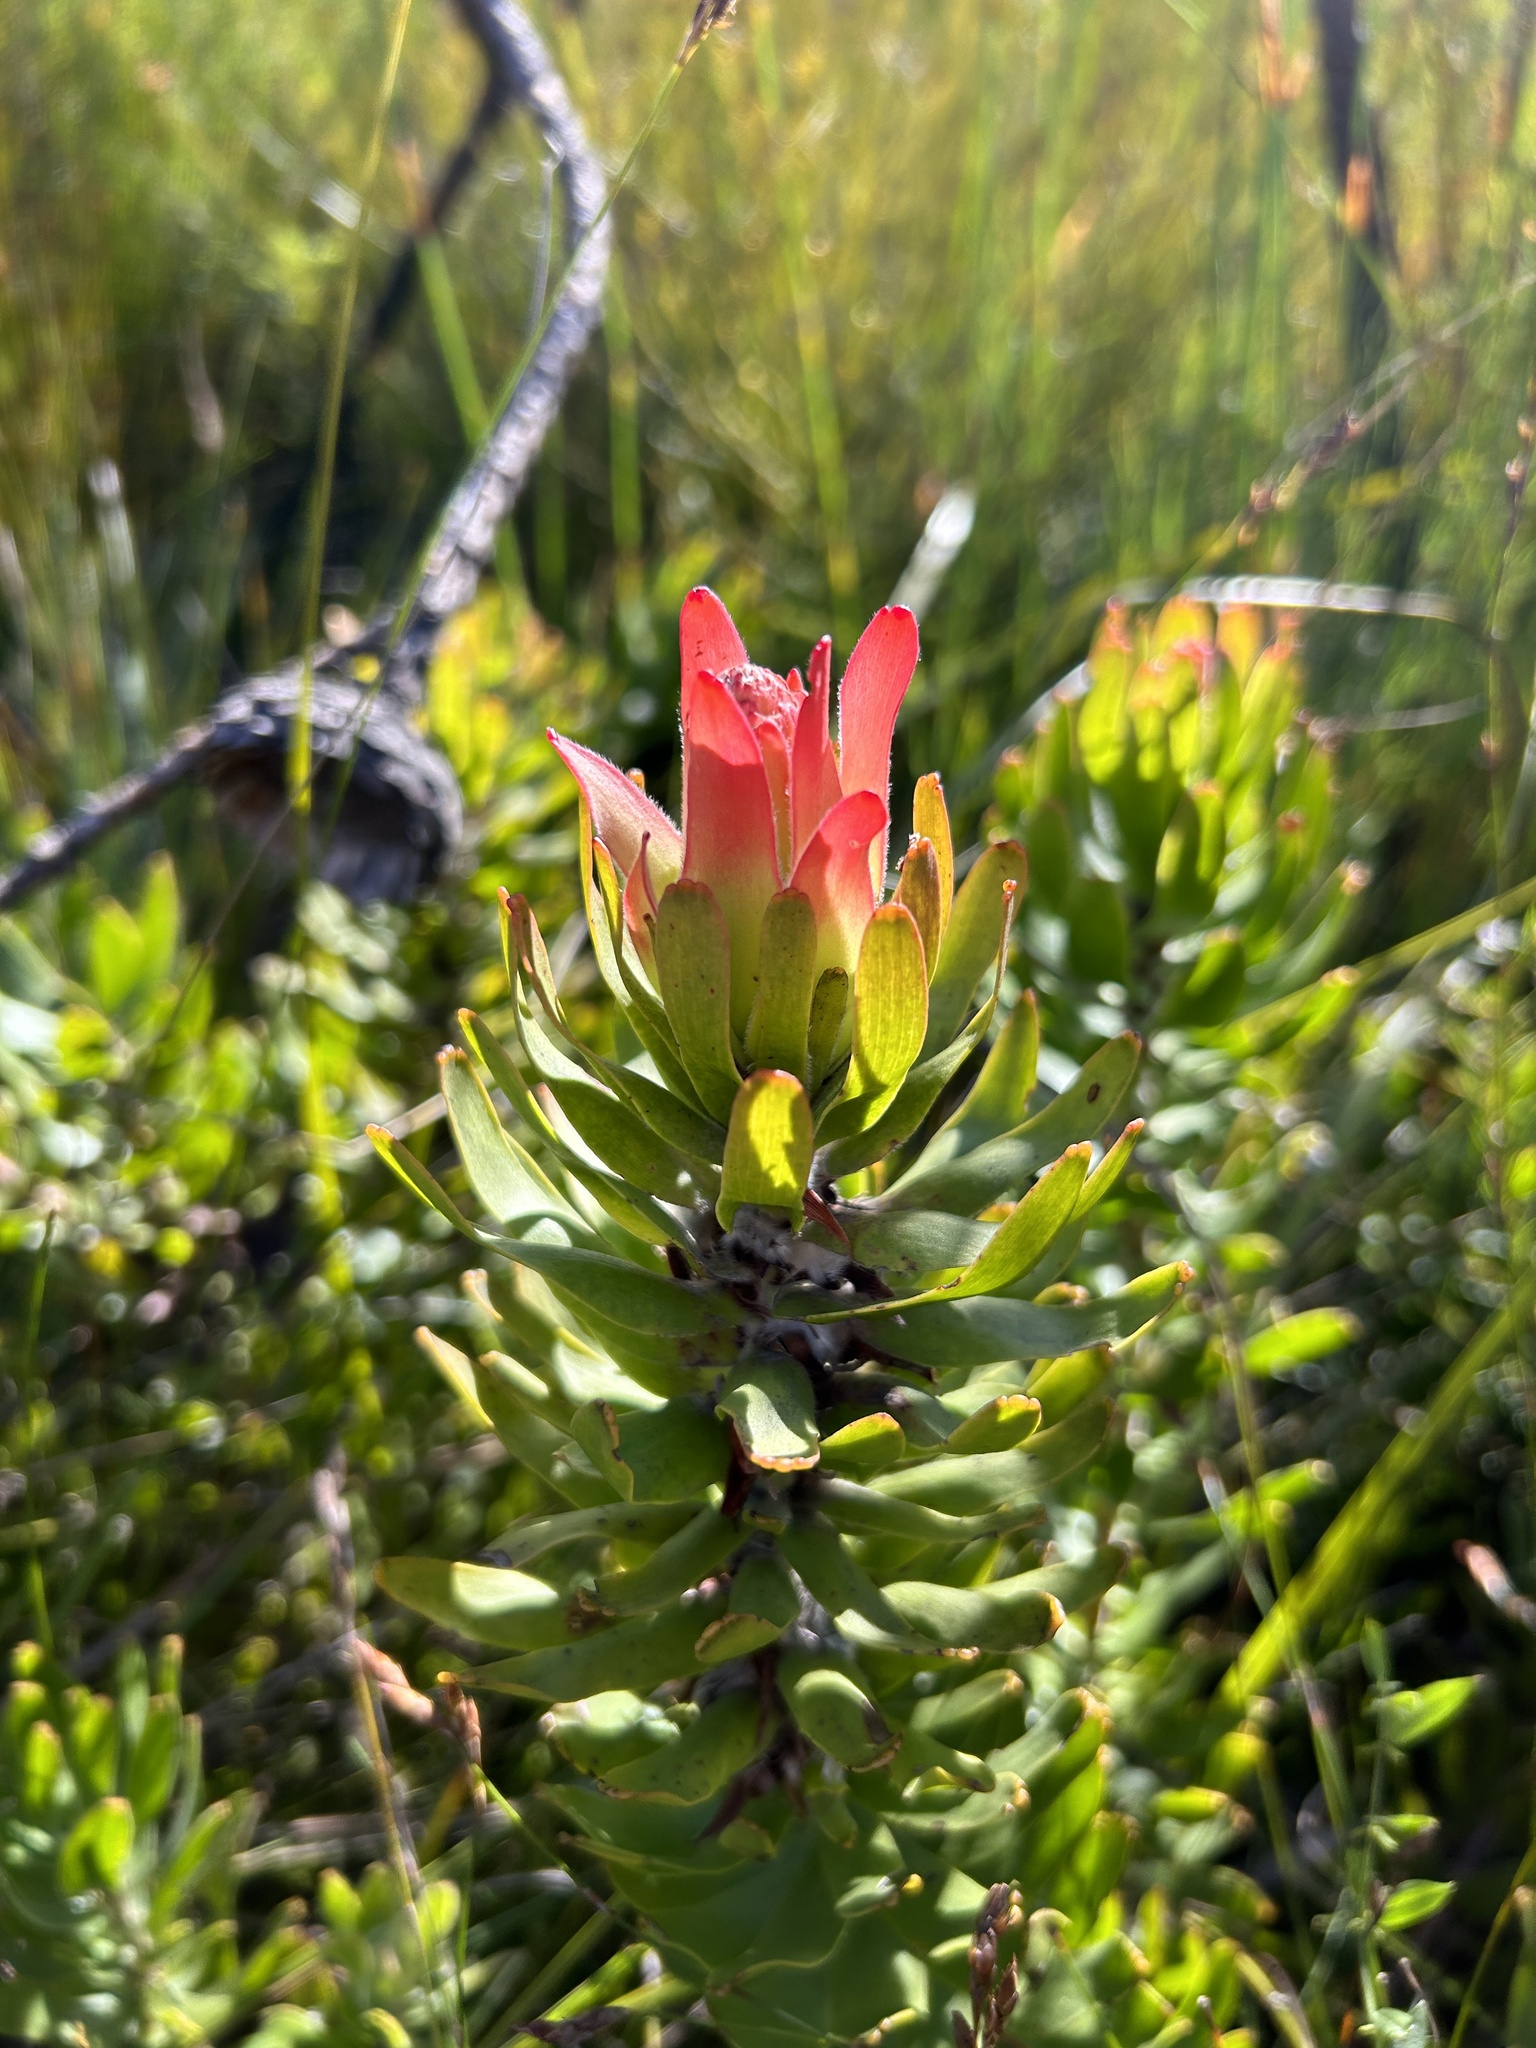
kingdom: Plantae
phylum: Tracheophyta
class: Magnoliopsida
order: Proteales
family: Proteaceae
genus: Mimetes
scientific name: Mimetes cucullatus
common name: Common pagoda
